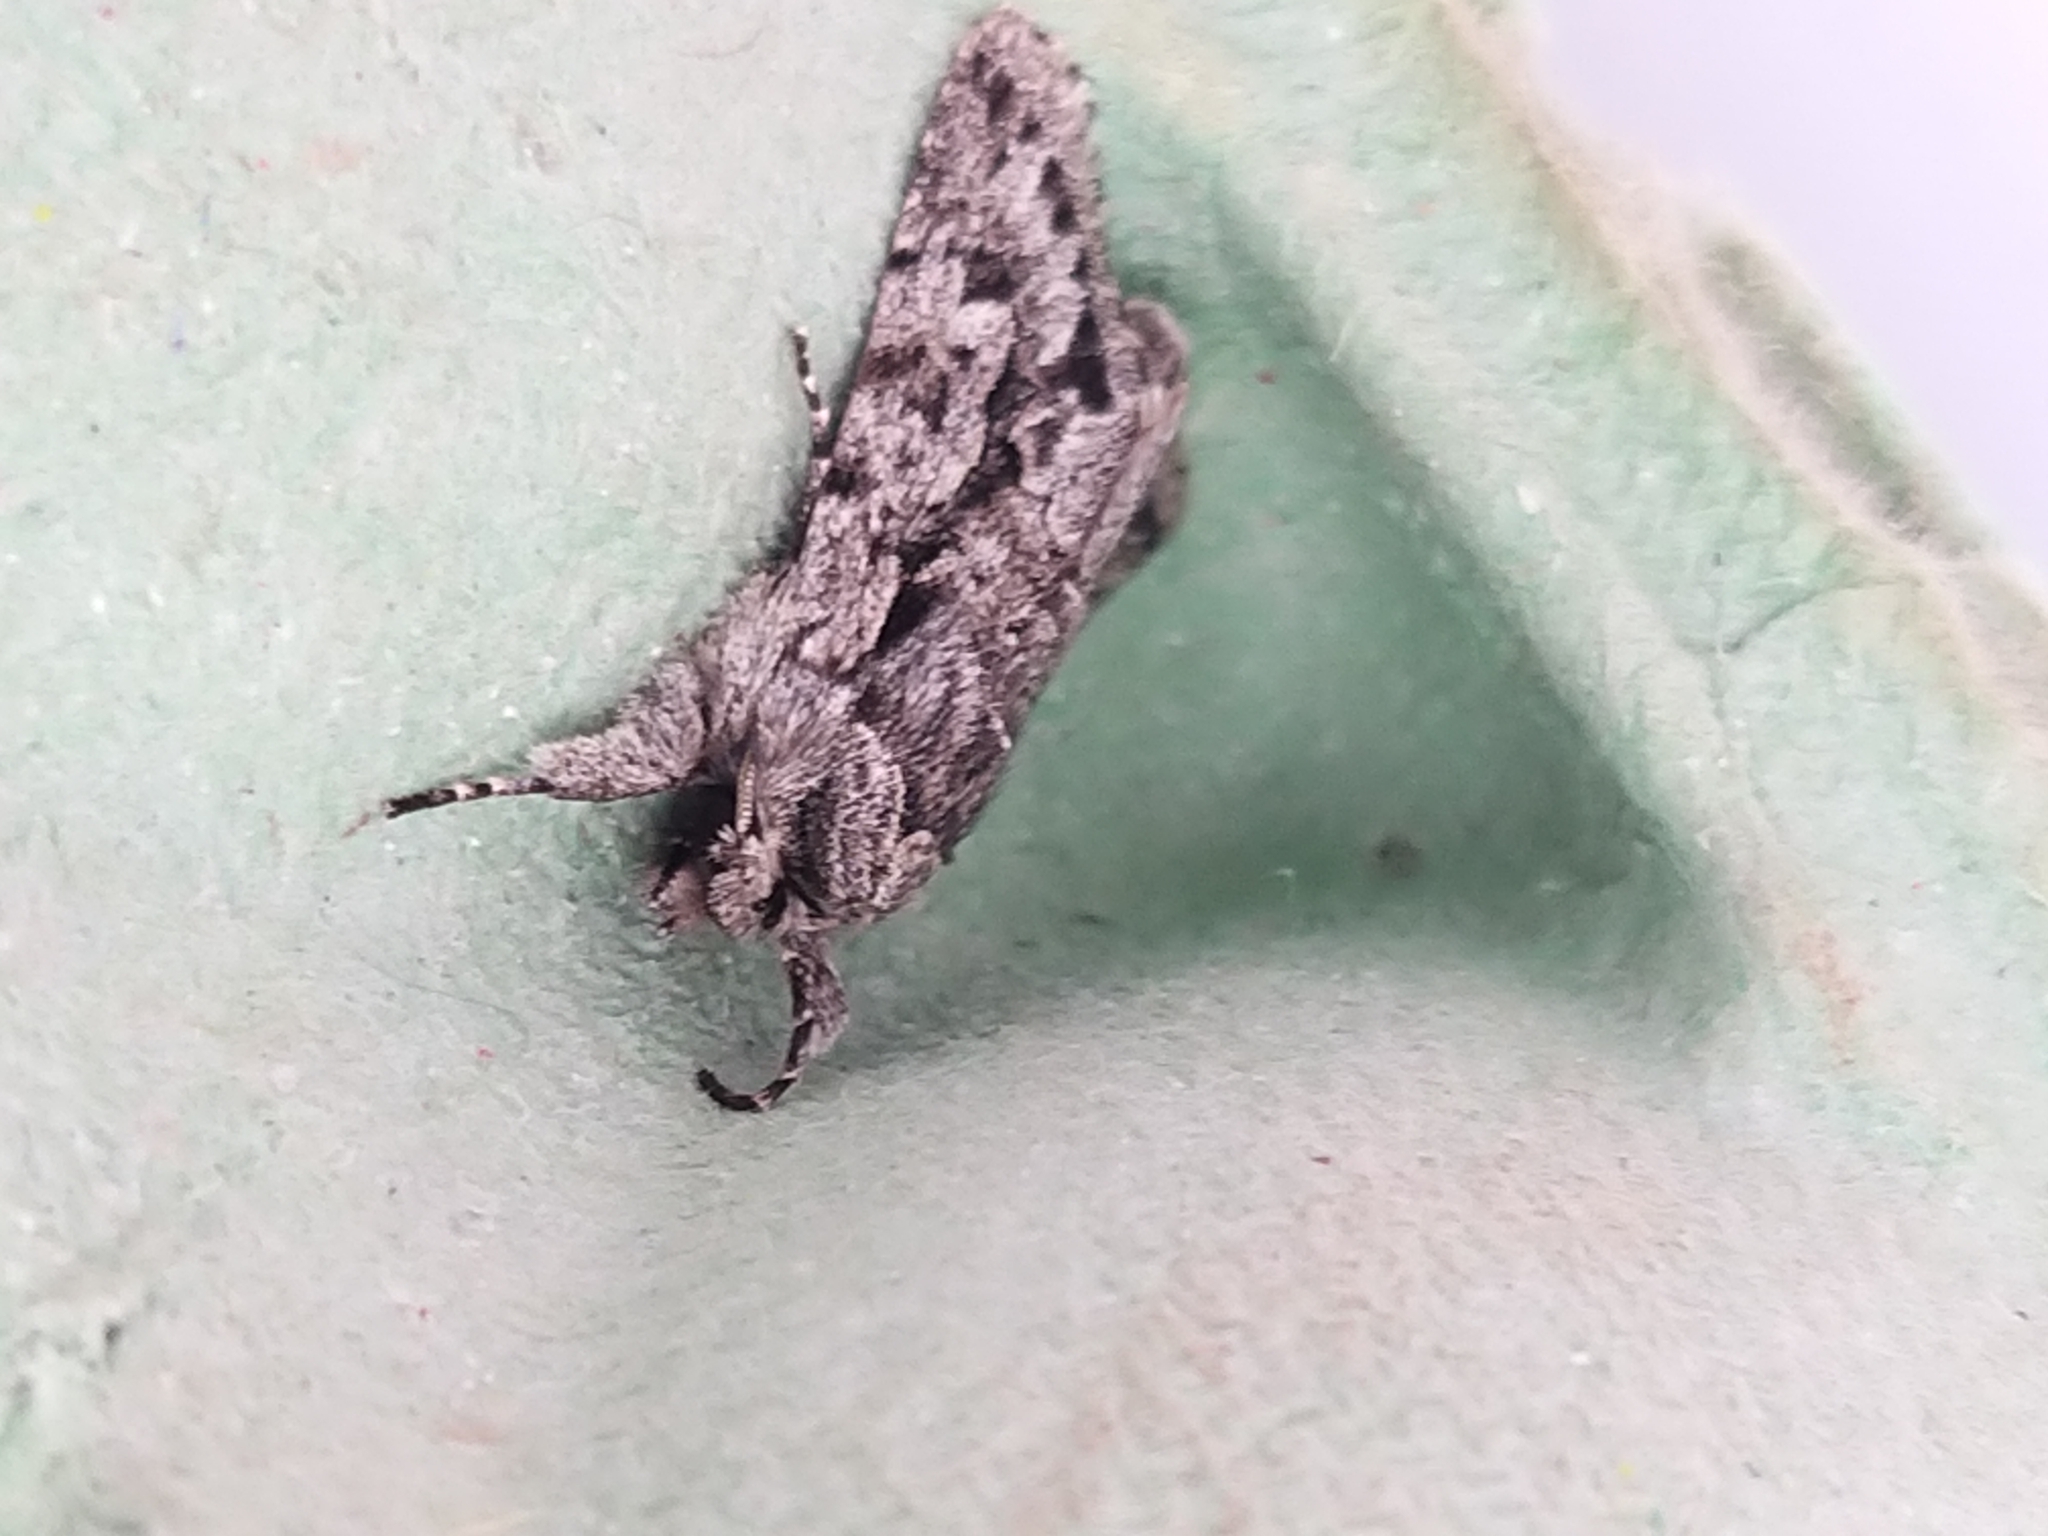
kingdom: Animalia
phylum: Arthropoda
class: Insecta
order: Lepidoptera
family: Noctuidae
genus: Xylocampa
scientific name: Xylocampa areola
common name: Early grey
